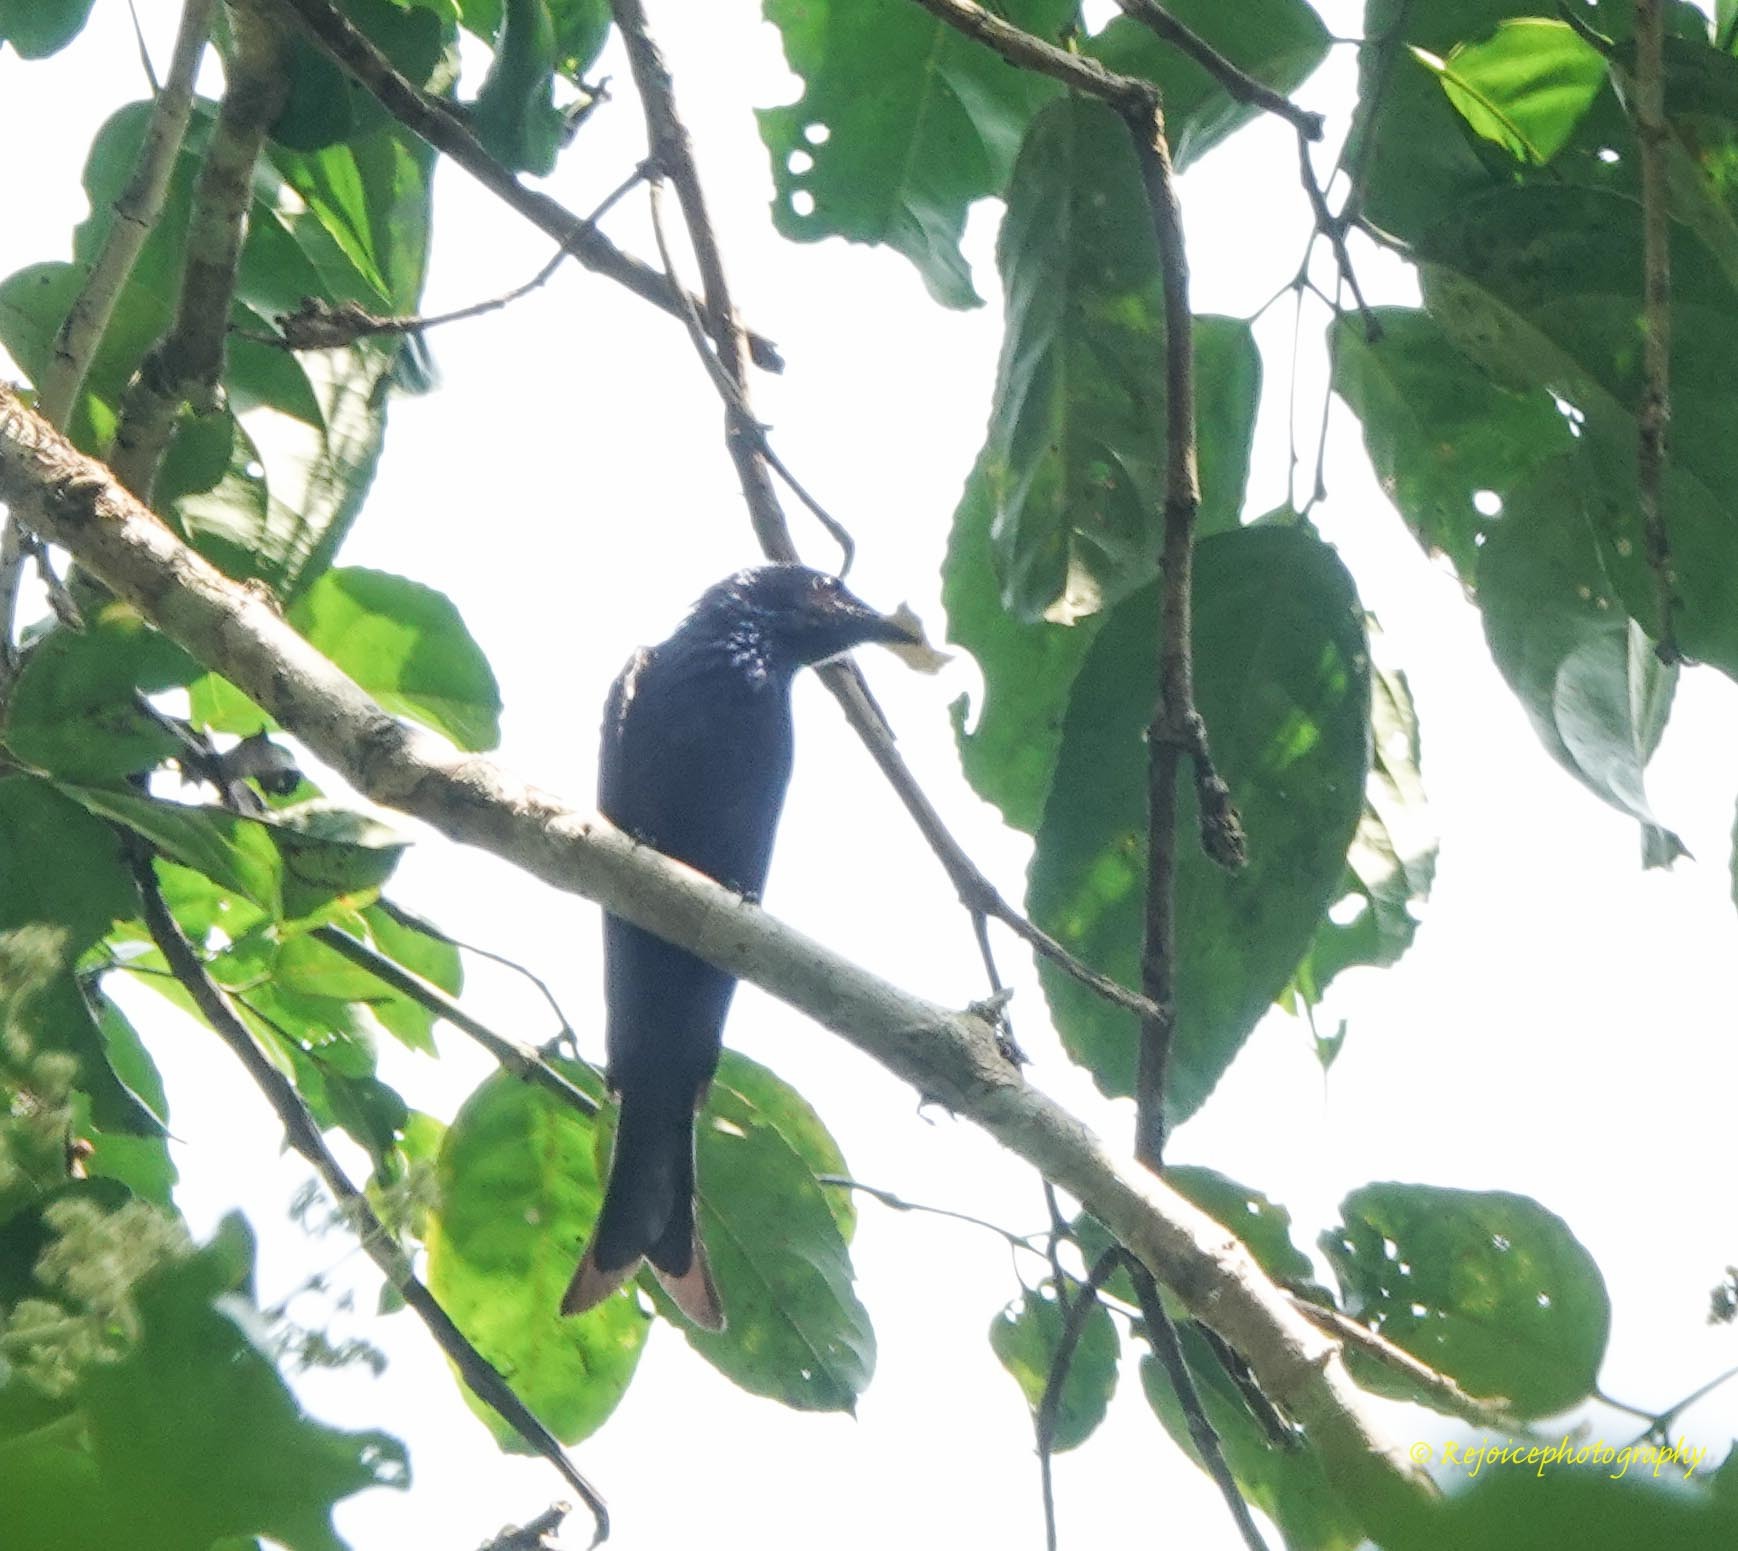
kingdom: Animalia
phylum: Chordata
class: Aves
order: Passeriformes
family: Dicruridae
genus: Dicrurus
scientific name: Dicrurus aeneus
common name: Bronzed drongo
